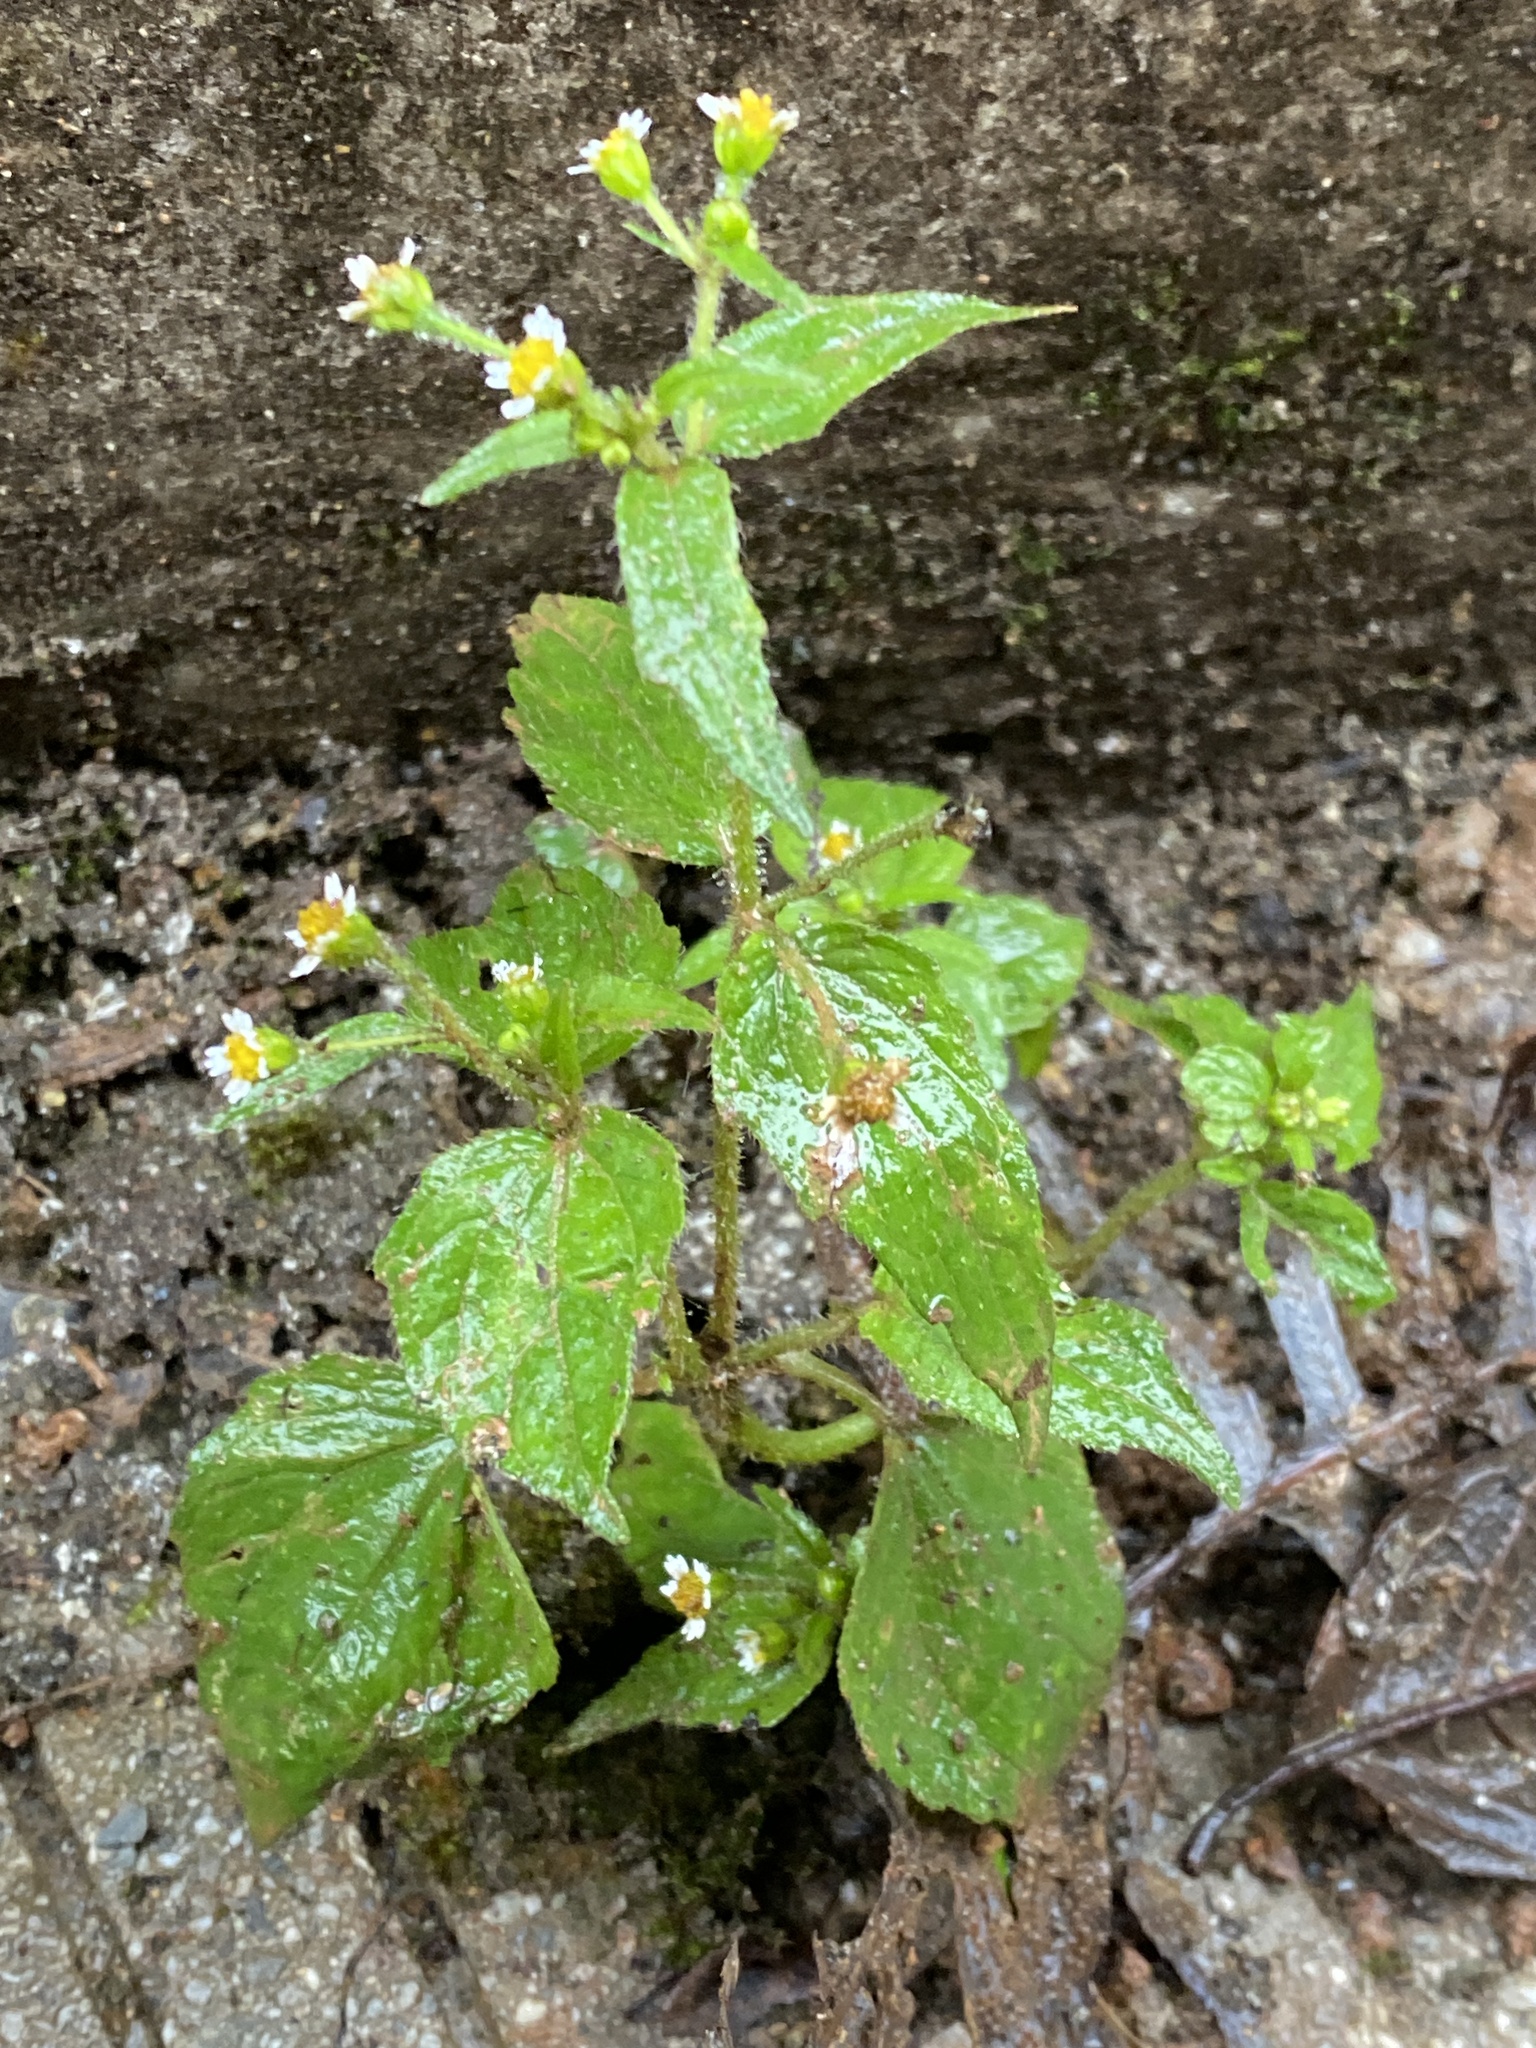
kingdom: Plantae
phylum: Tracheophyta
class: Magnoliopsida
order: Asterales
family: Asteraceae
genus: Galinsoga
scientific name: Galinsoga quadriradiata
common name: Shaggy soldier
